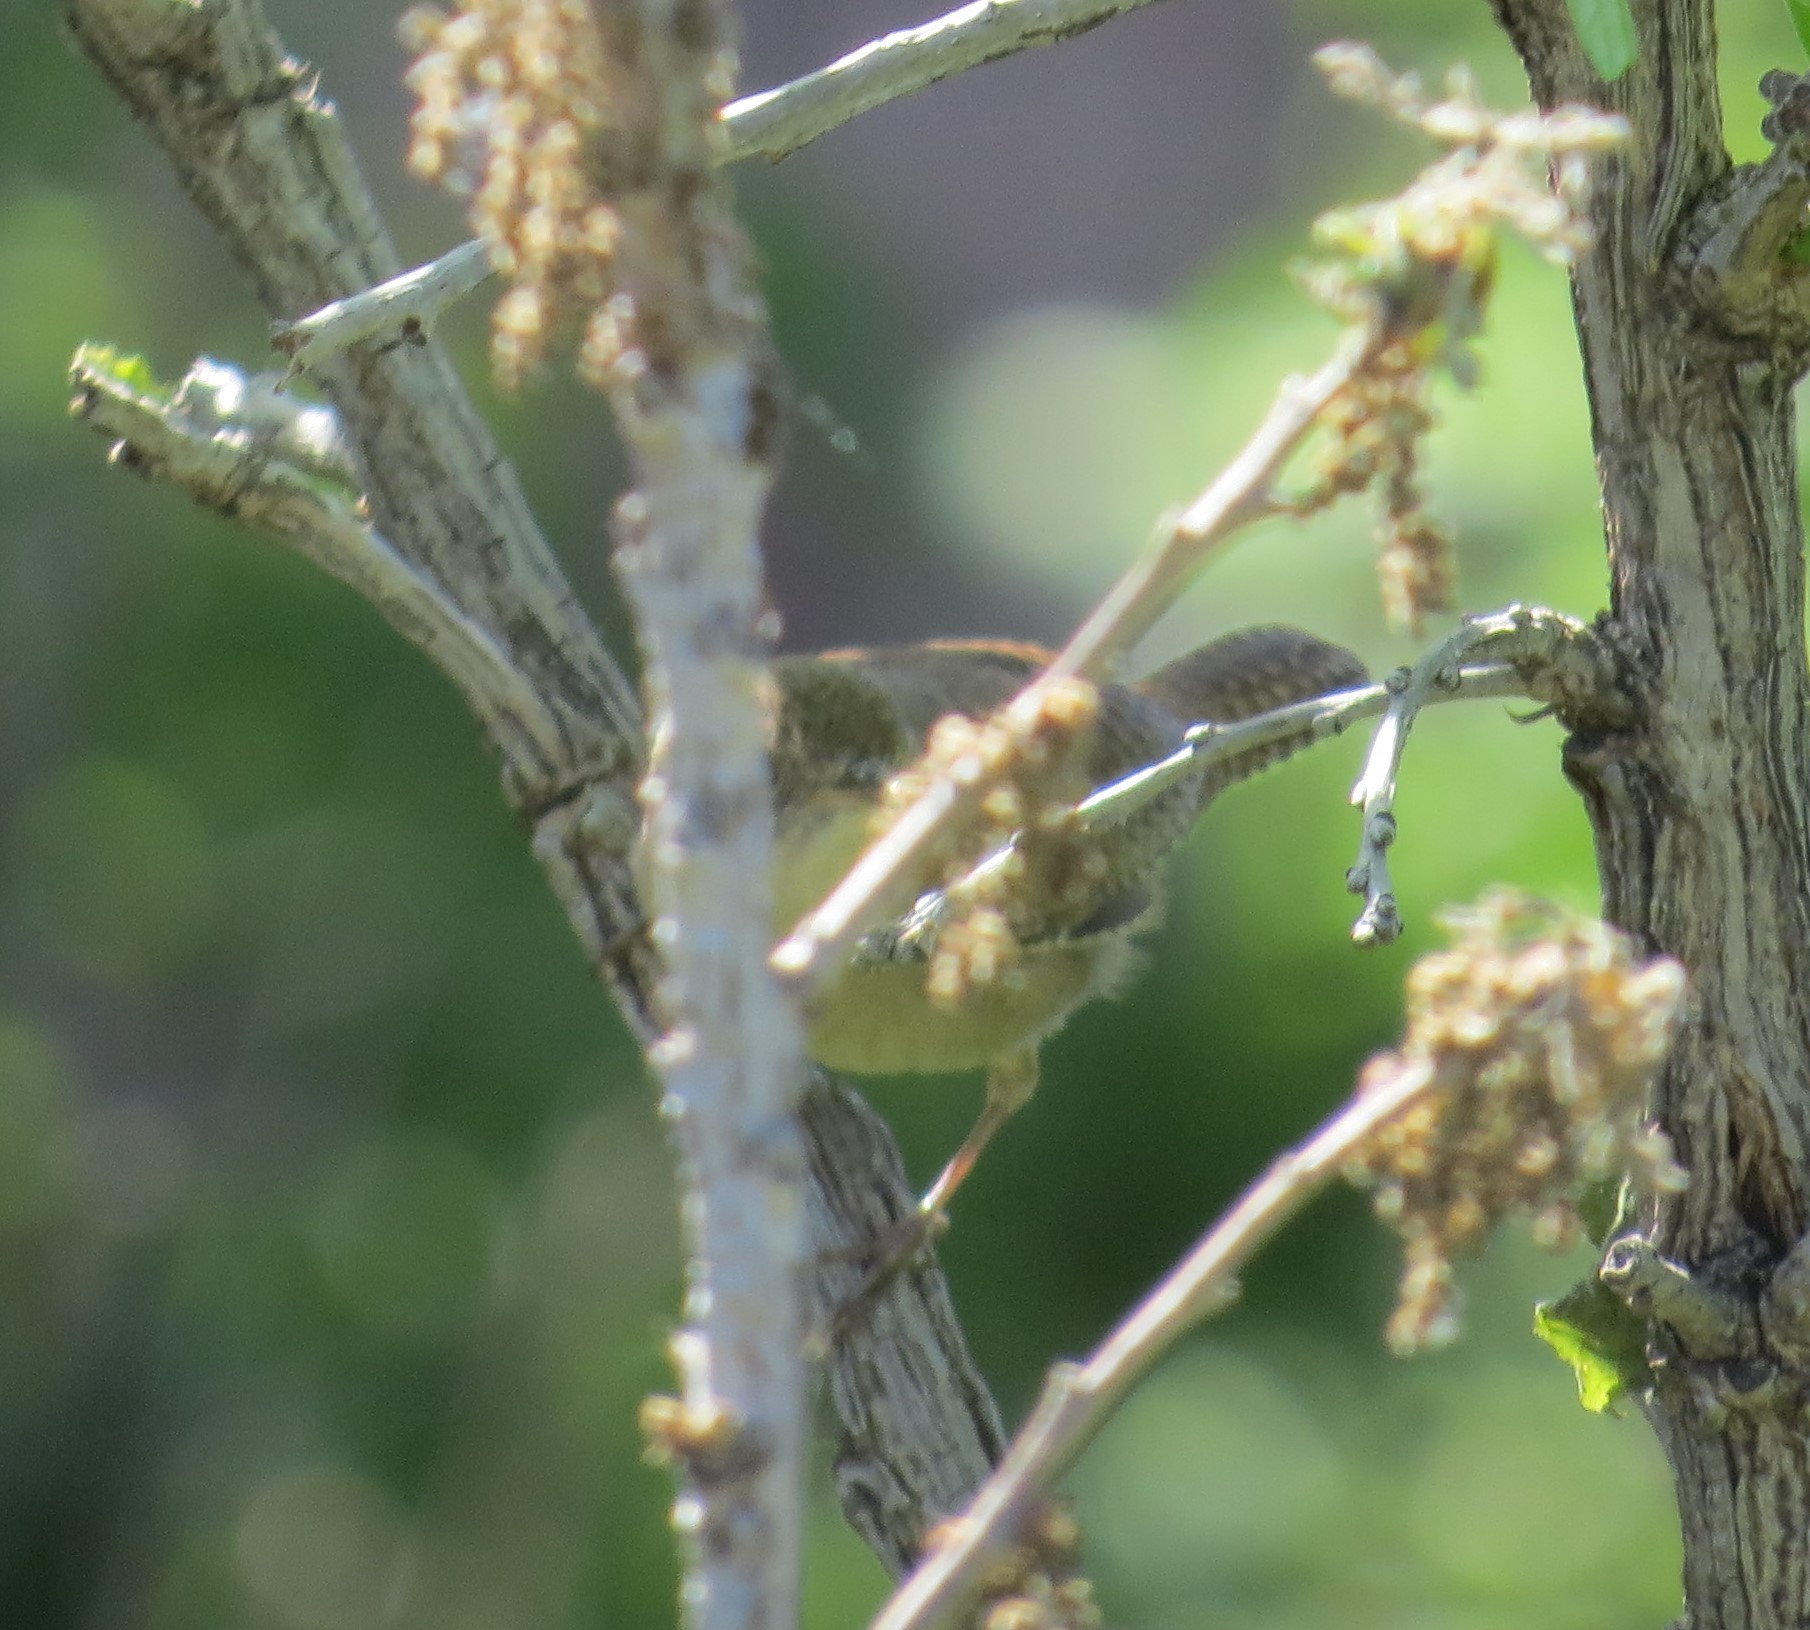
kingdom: Animalia
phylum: Chordata
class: Aves
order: Passeriformes
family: Troglodytidae
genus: Troglodytes
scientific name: Troglodytes aedon
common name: House wren
